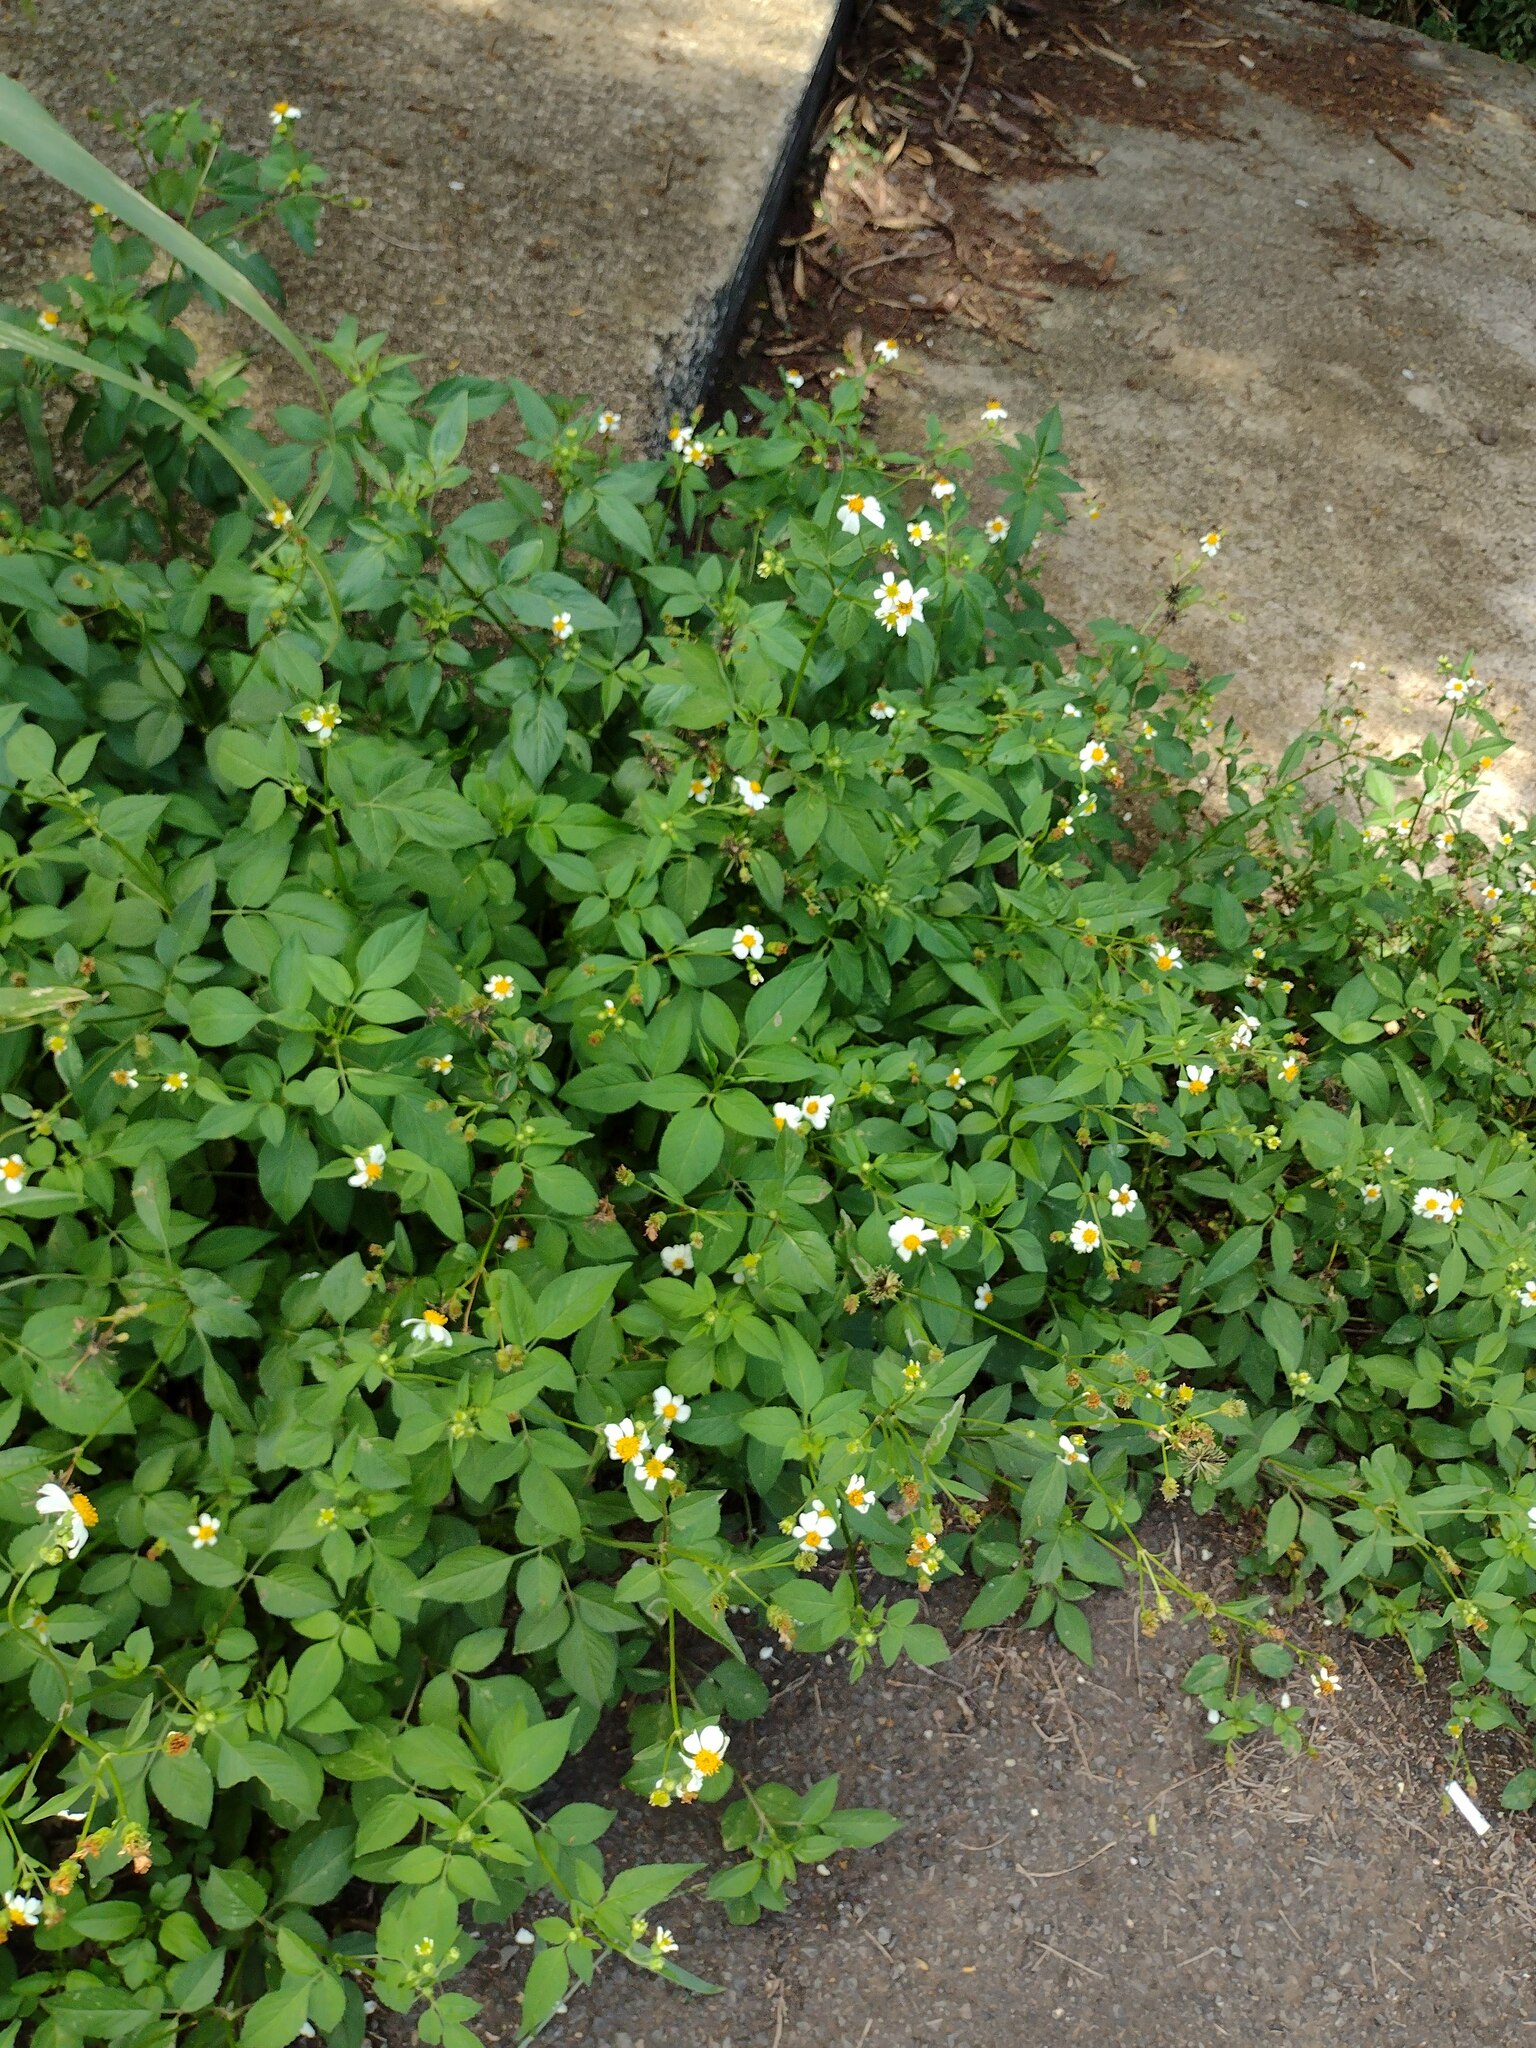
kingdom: Plantae
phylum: Tracheophyta
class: Magnoliopsida
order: Asterales
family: Asteraceae
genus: Bidens
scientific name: Bidens alba
